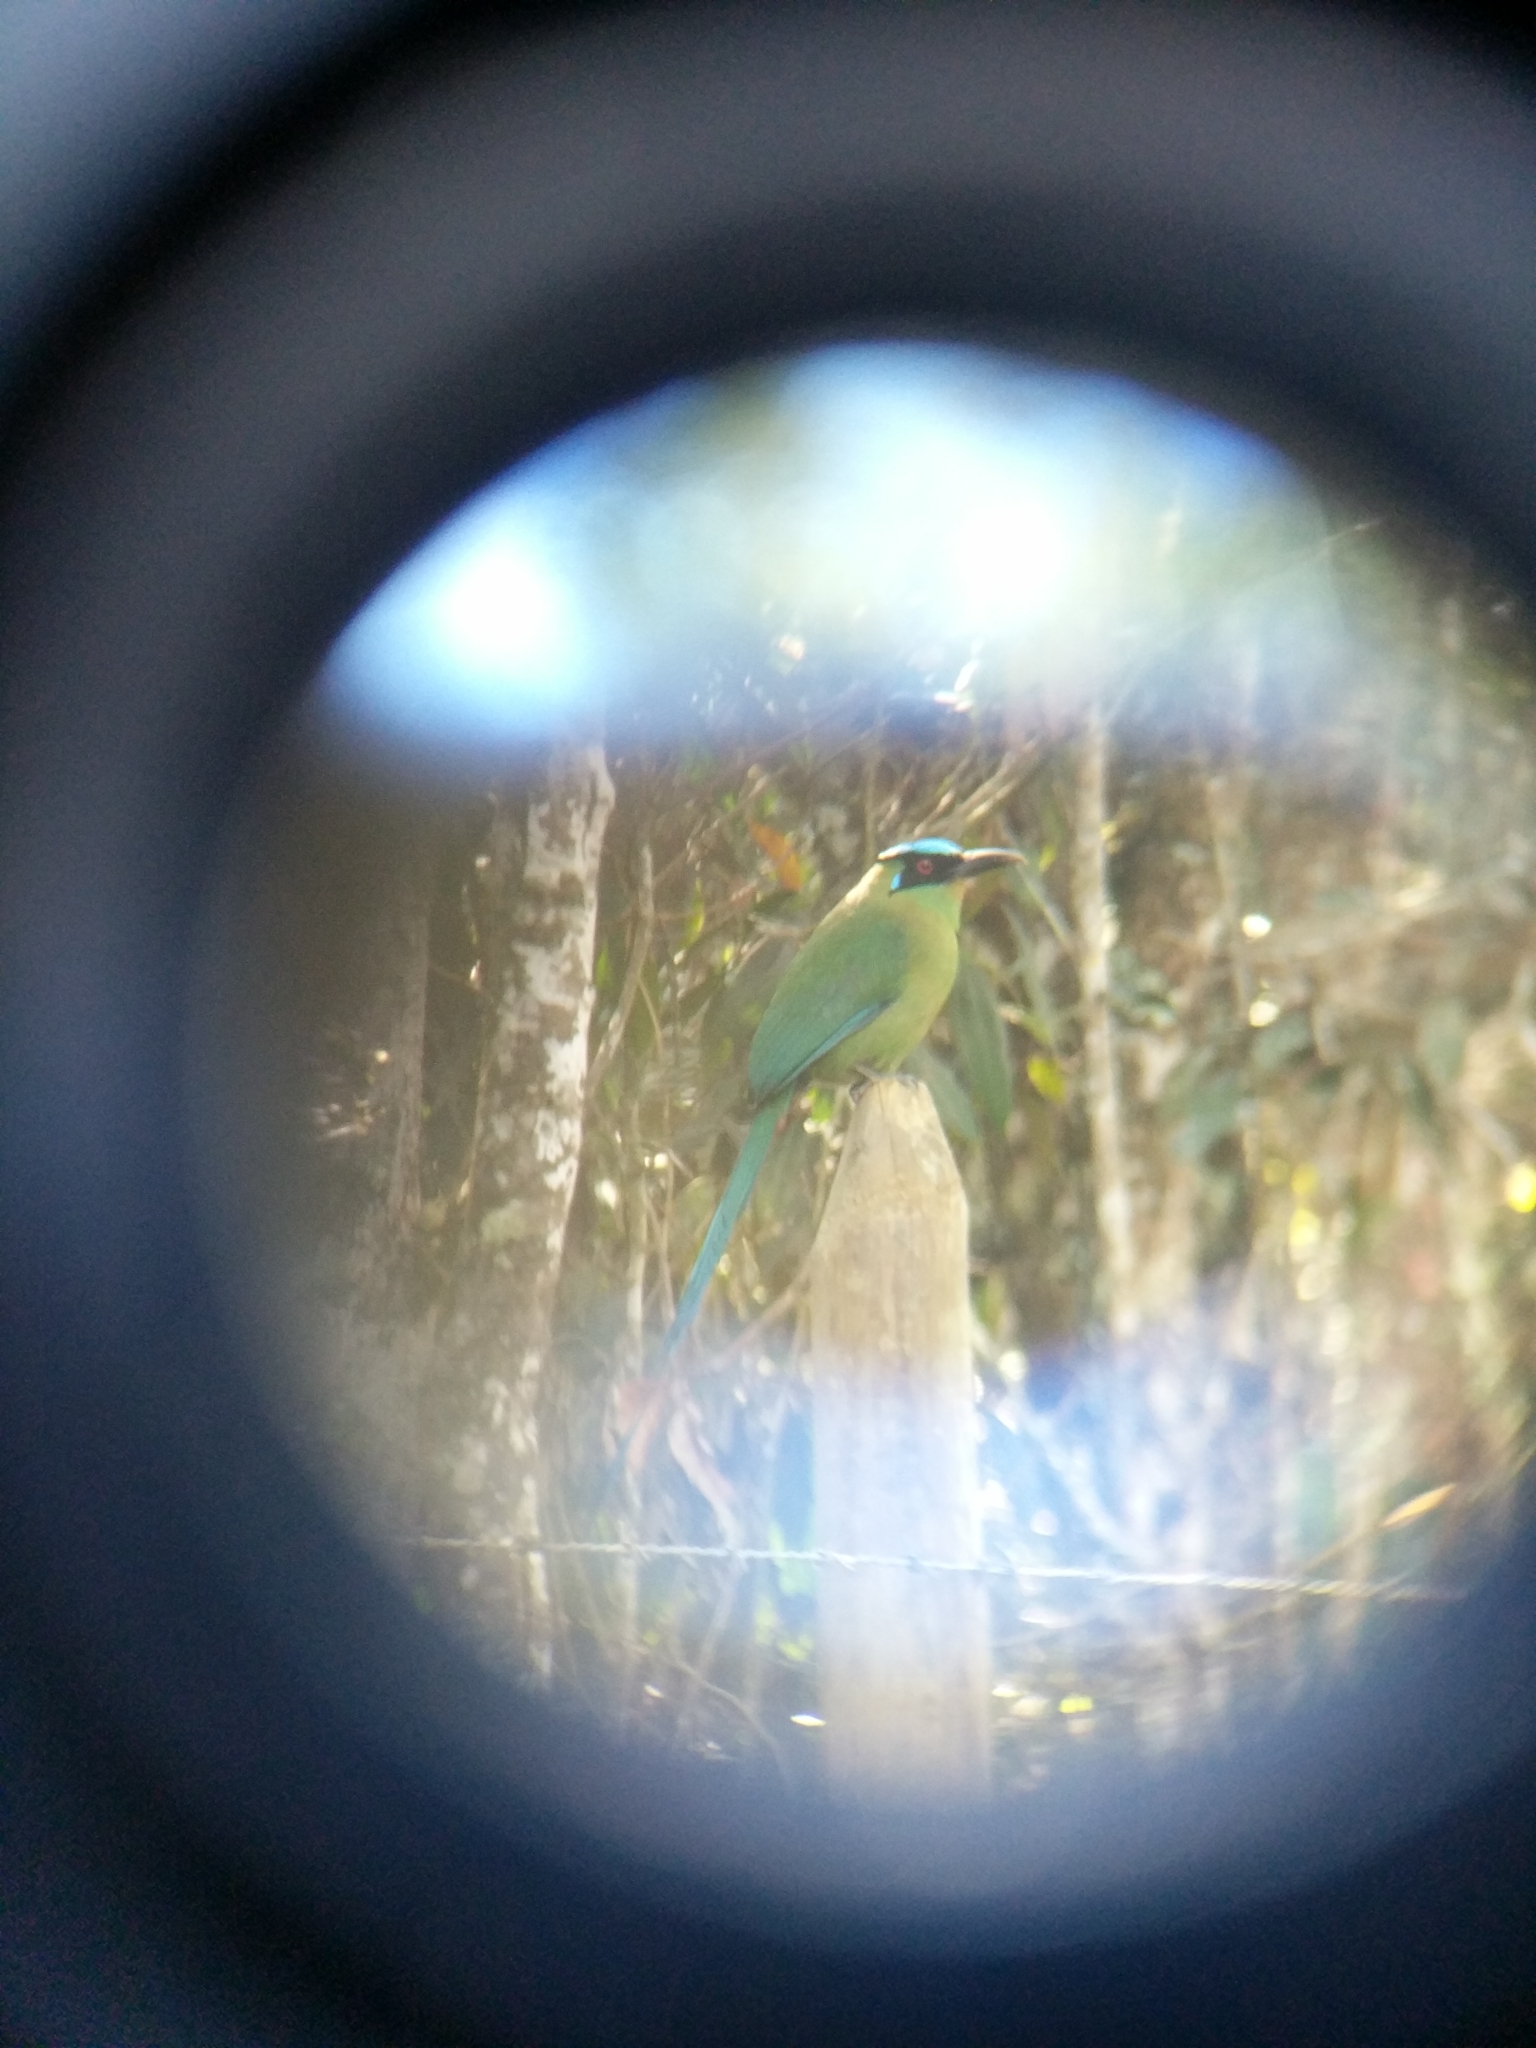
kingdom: Animalia
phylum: Chordata
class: Aves
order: Coraciiformes
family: Momotidae
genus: Momotus
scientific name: Momotus aequatorialis
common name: Andean motmot
